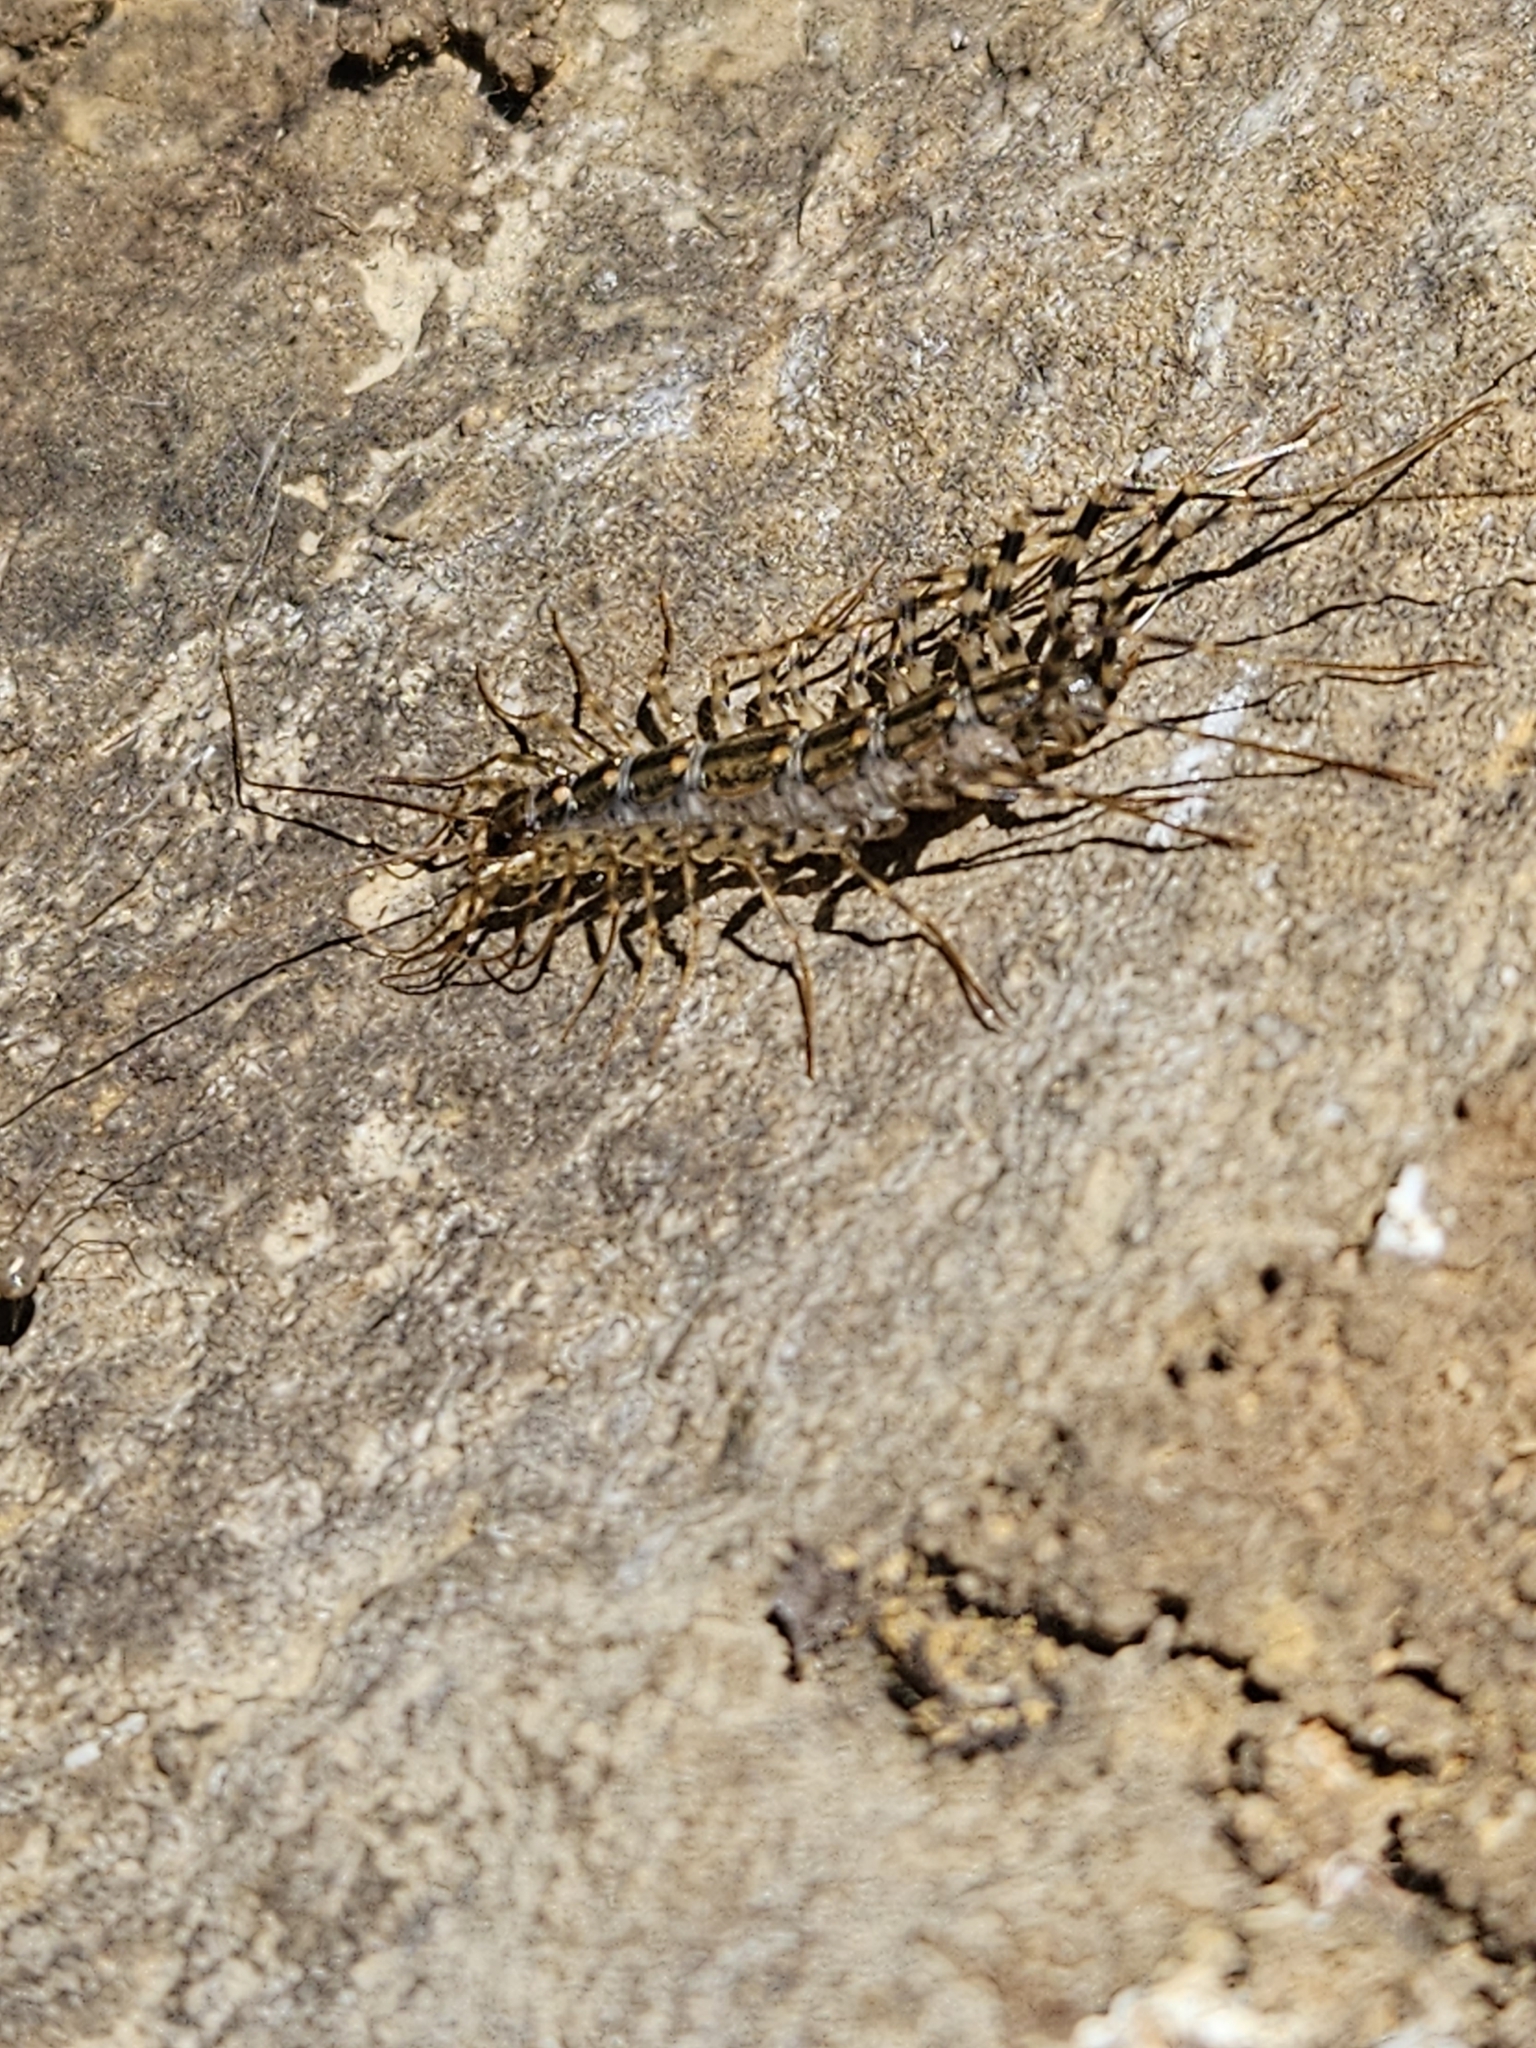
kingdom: Animalia
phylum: Arthropoda
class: Chilopoda
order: Scutigeromorpha
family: Scutigeridae
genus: Thereuonema
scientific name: Thereuonema tuberculata
